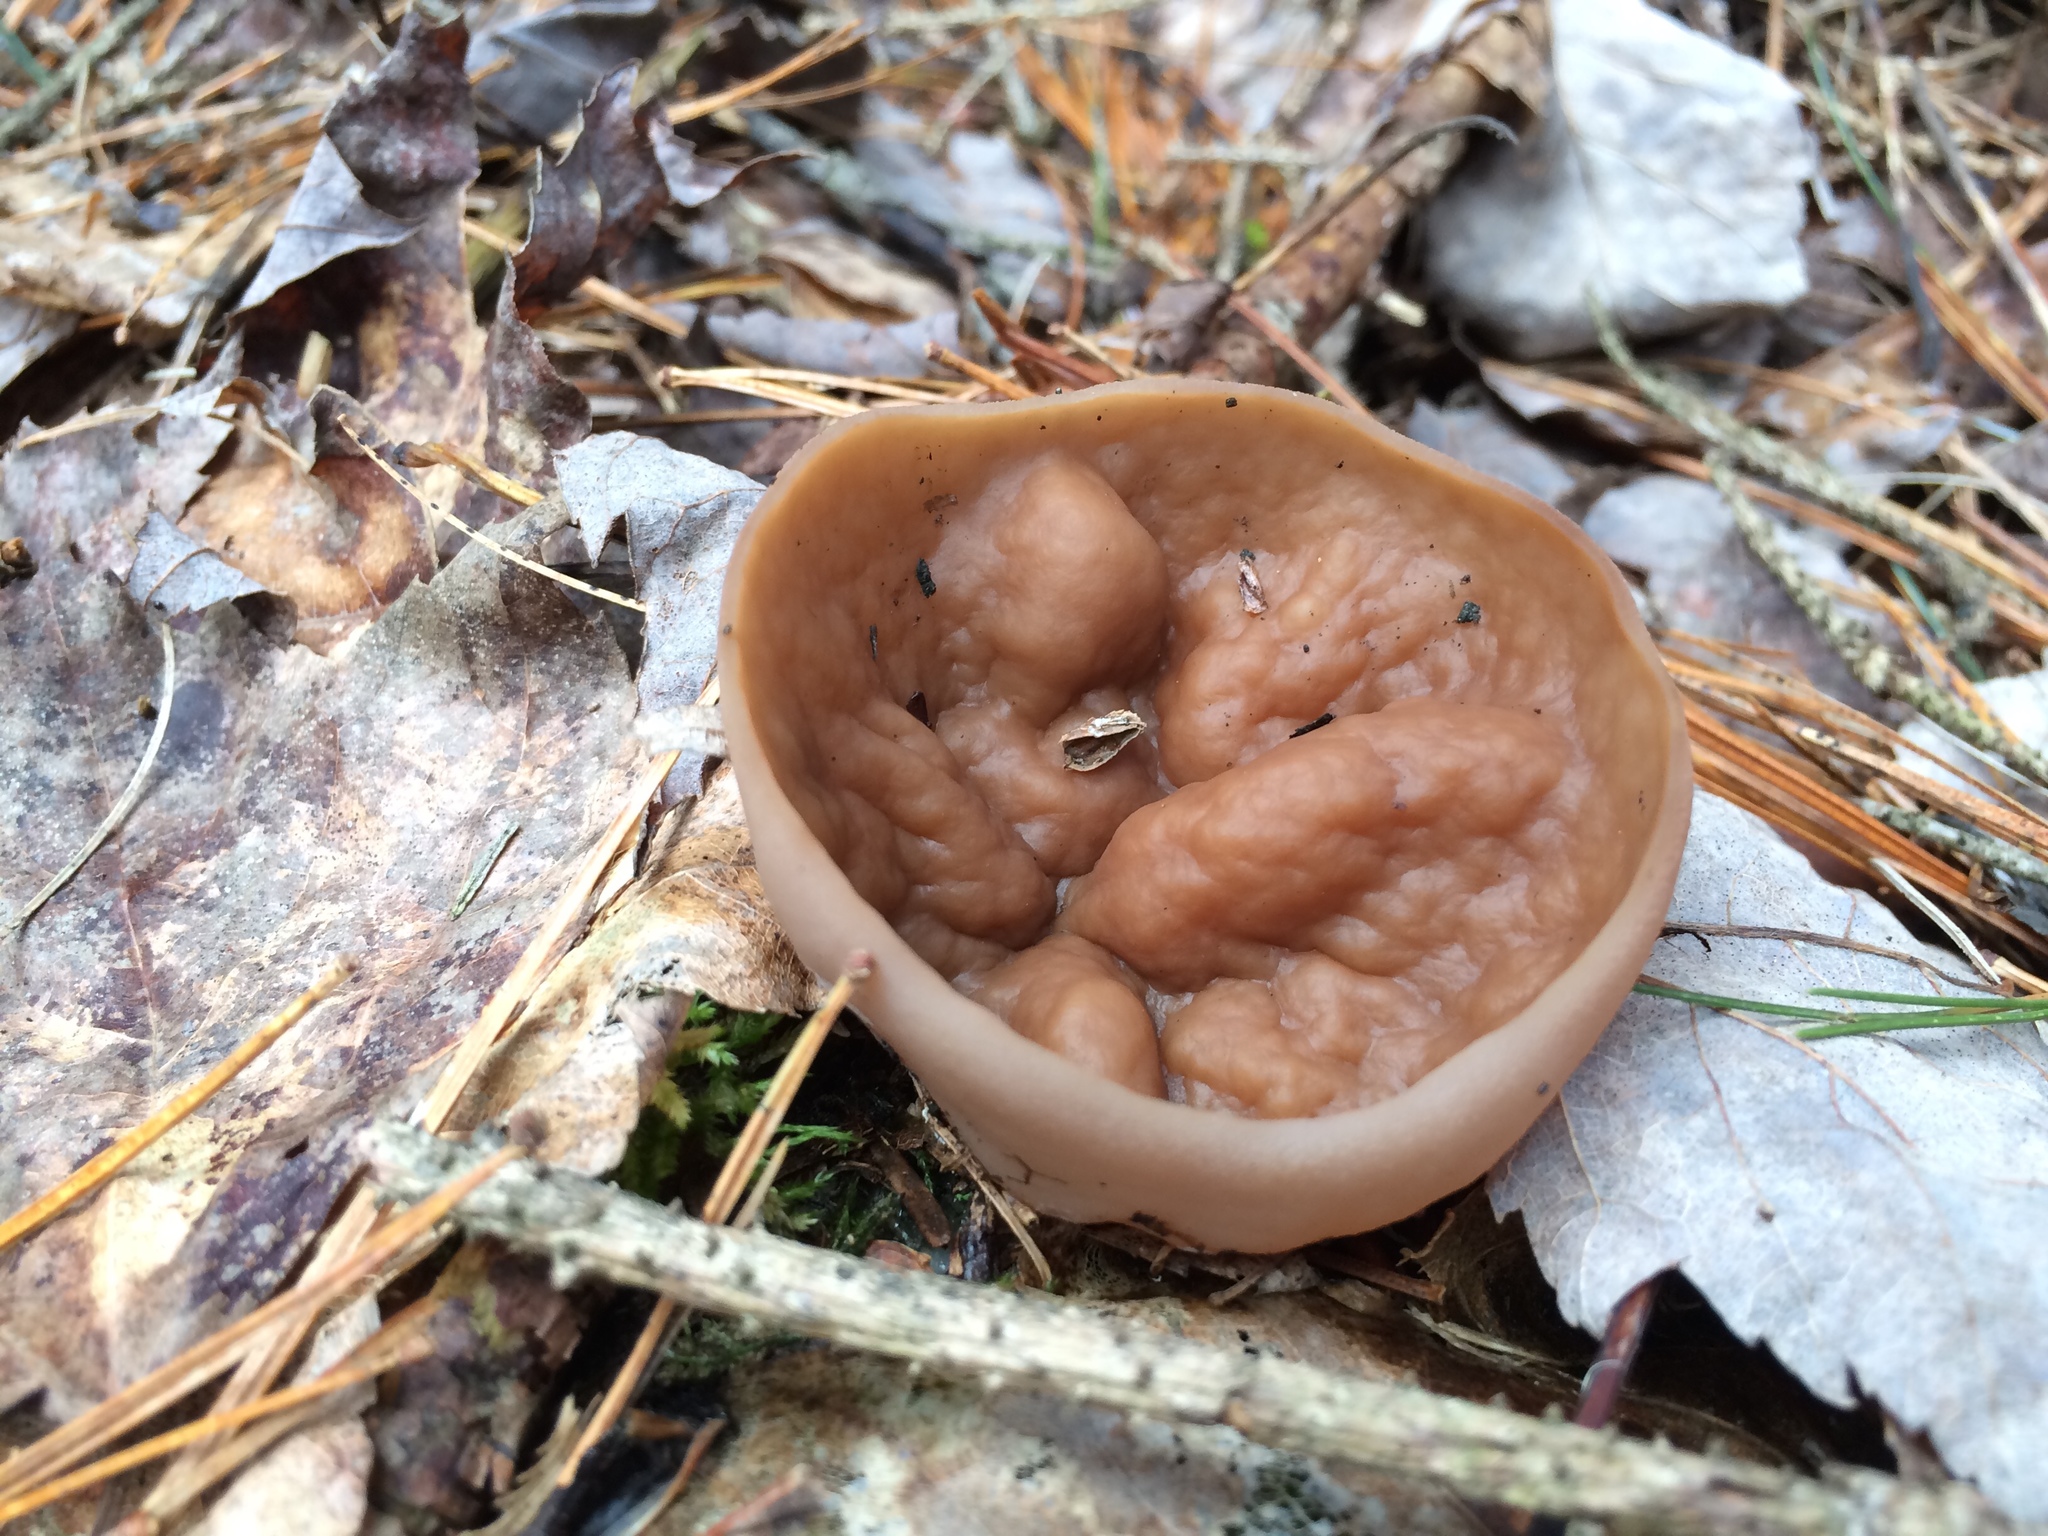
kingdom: Fungi
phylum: Ascomycota
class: Pezizomycetes
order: Pezizales
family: Discinaceae
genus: Discina
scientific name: Discina ancilis
